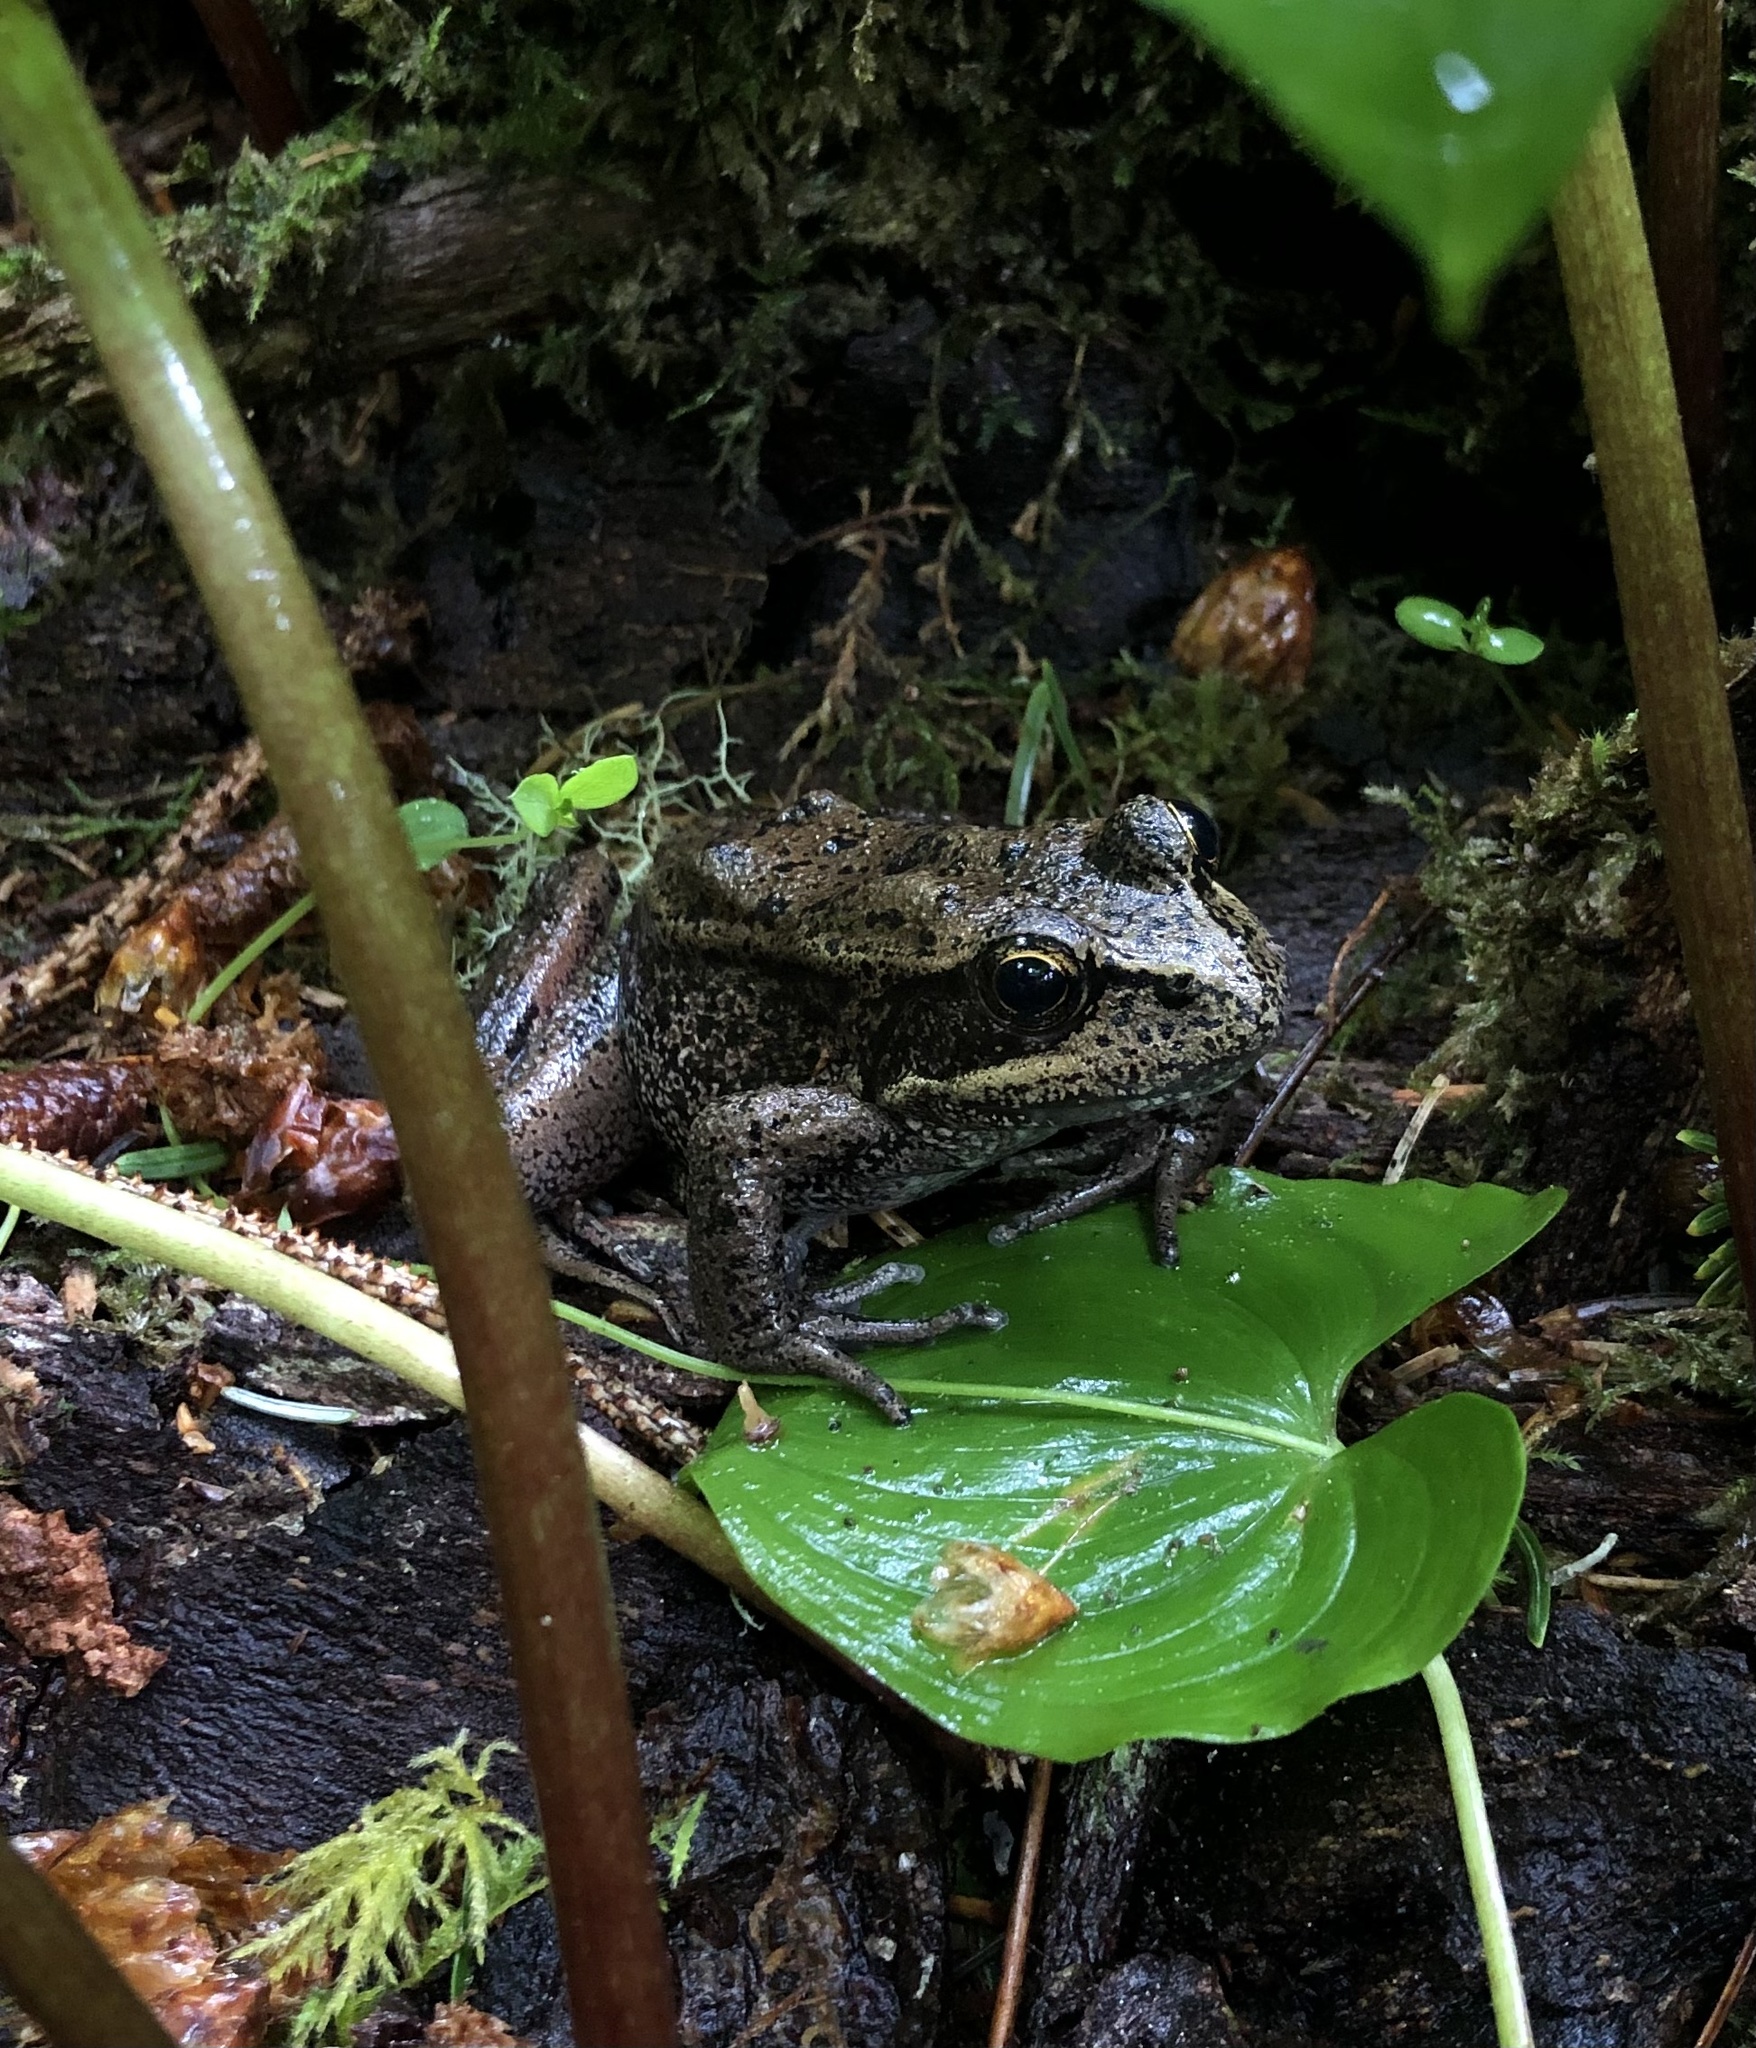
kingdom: Animalia
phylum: Chordata
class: Amphibia
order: Anura
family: Ranidae
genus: Rana
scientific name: Rana aurora
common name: Red-legged frog
